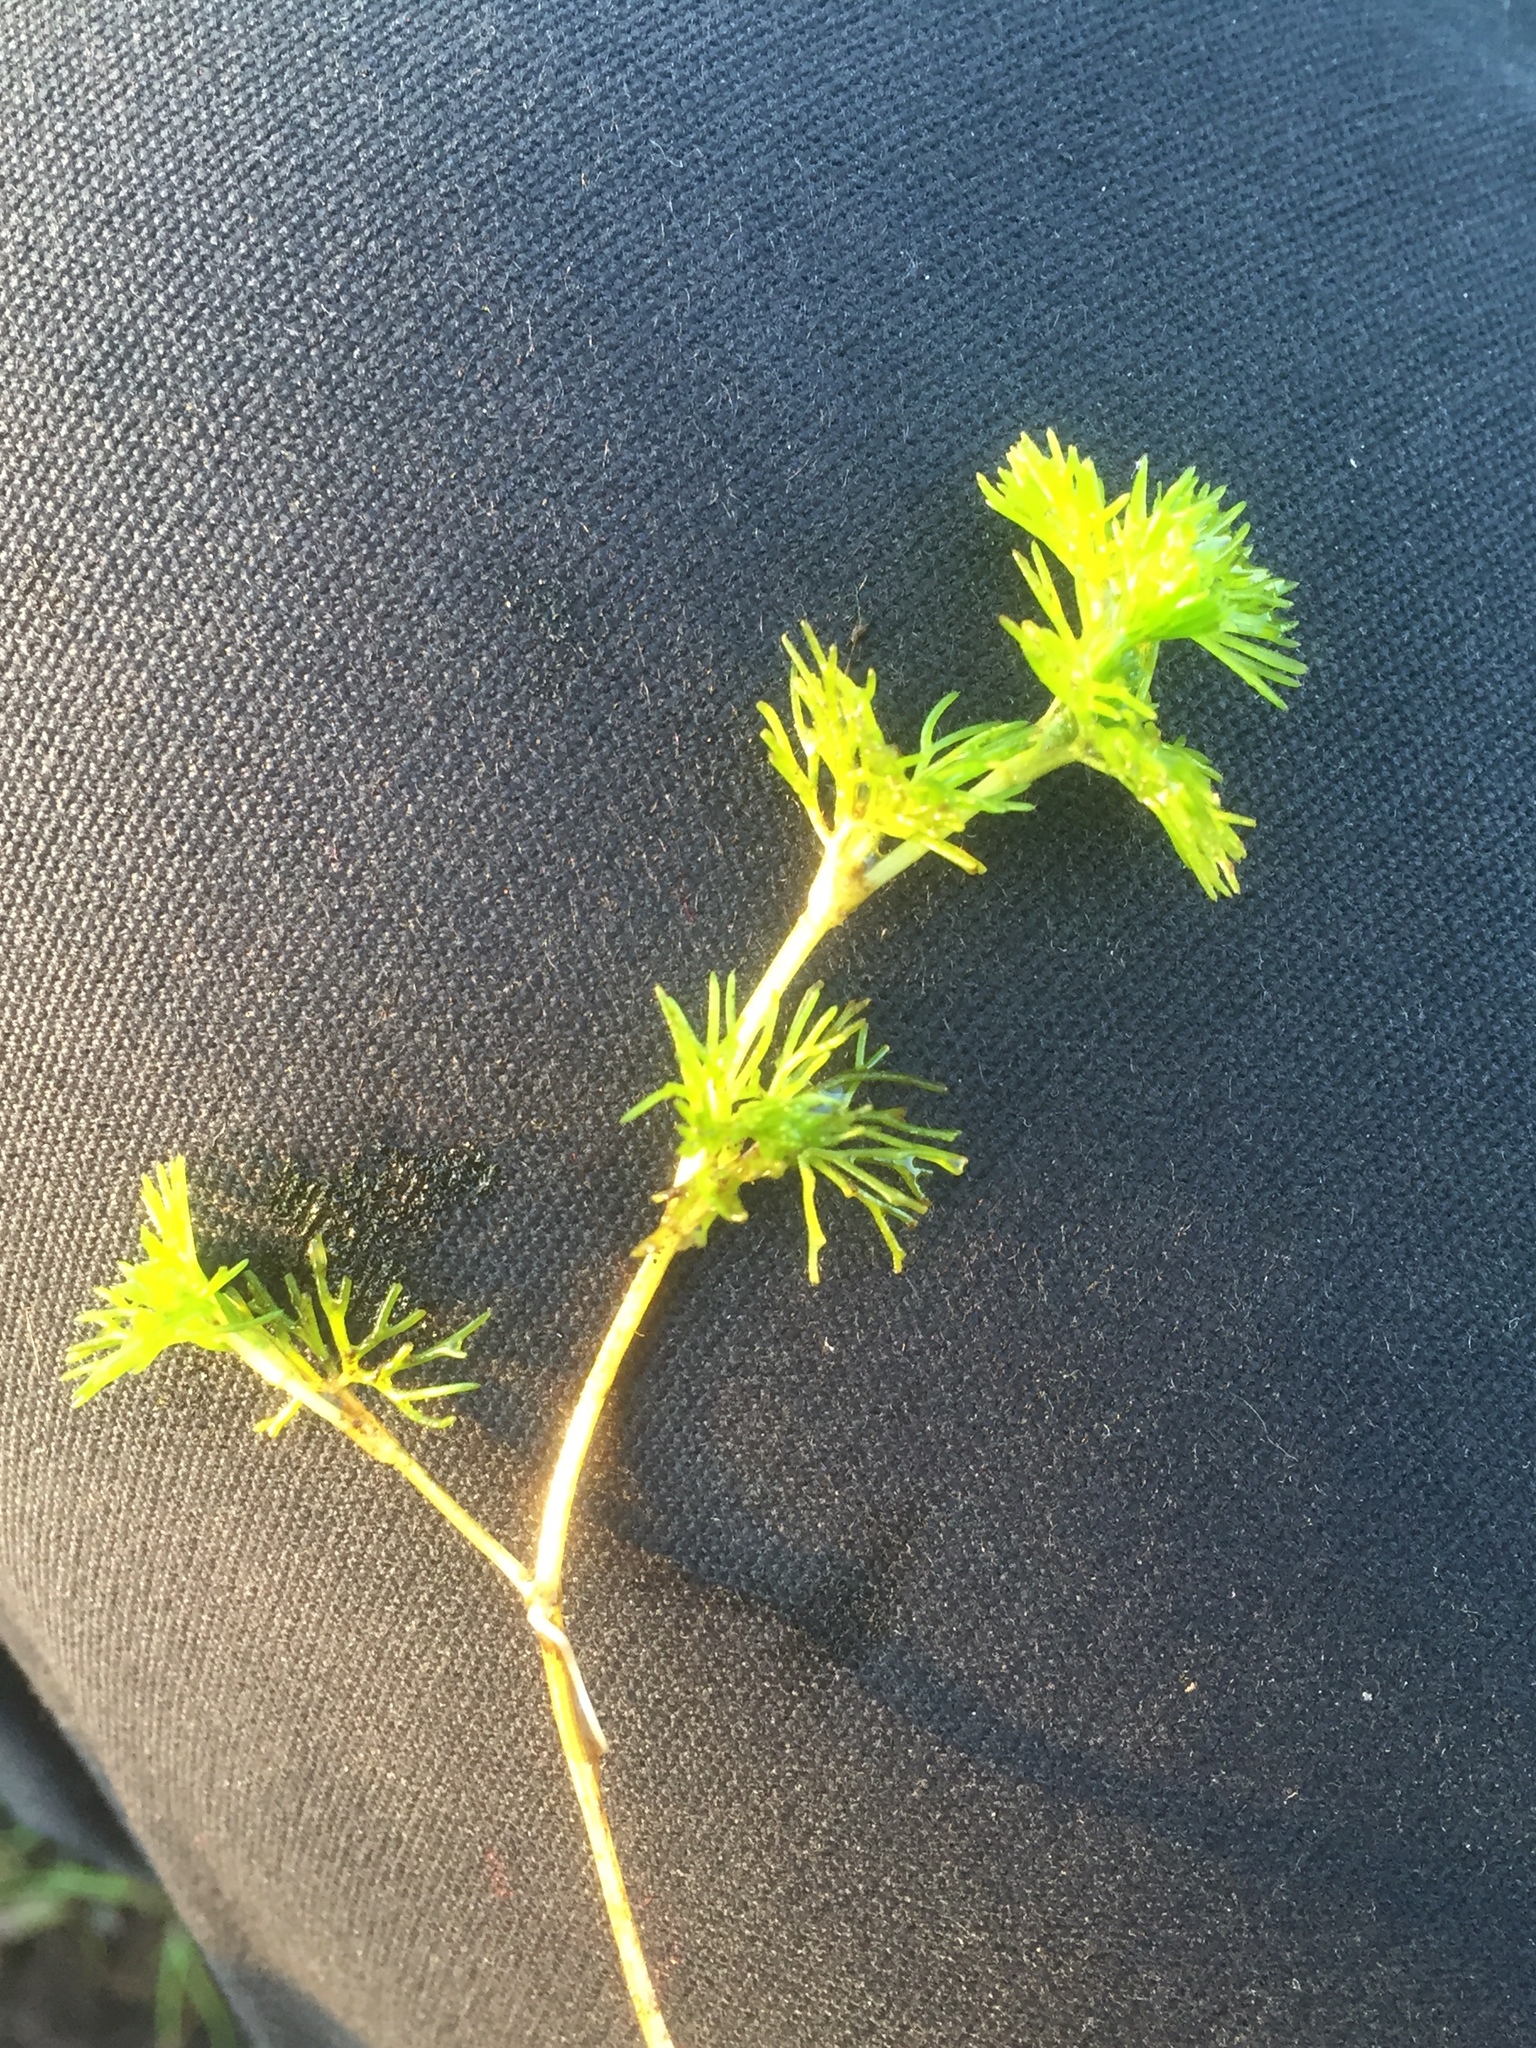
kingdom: Plantae
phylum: Tracheophyta
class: Magnoliopsida
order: Ranunculales
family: Ranunculaceae
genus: Ranunculus
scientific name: Ranunculus circinatus
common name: Fan-leaved water-crowfoot
